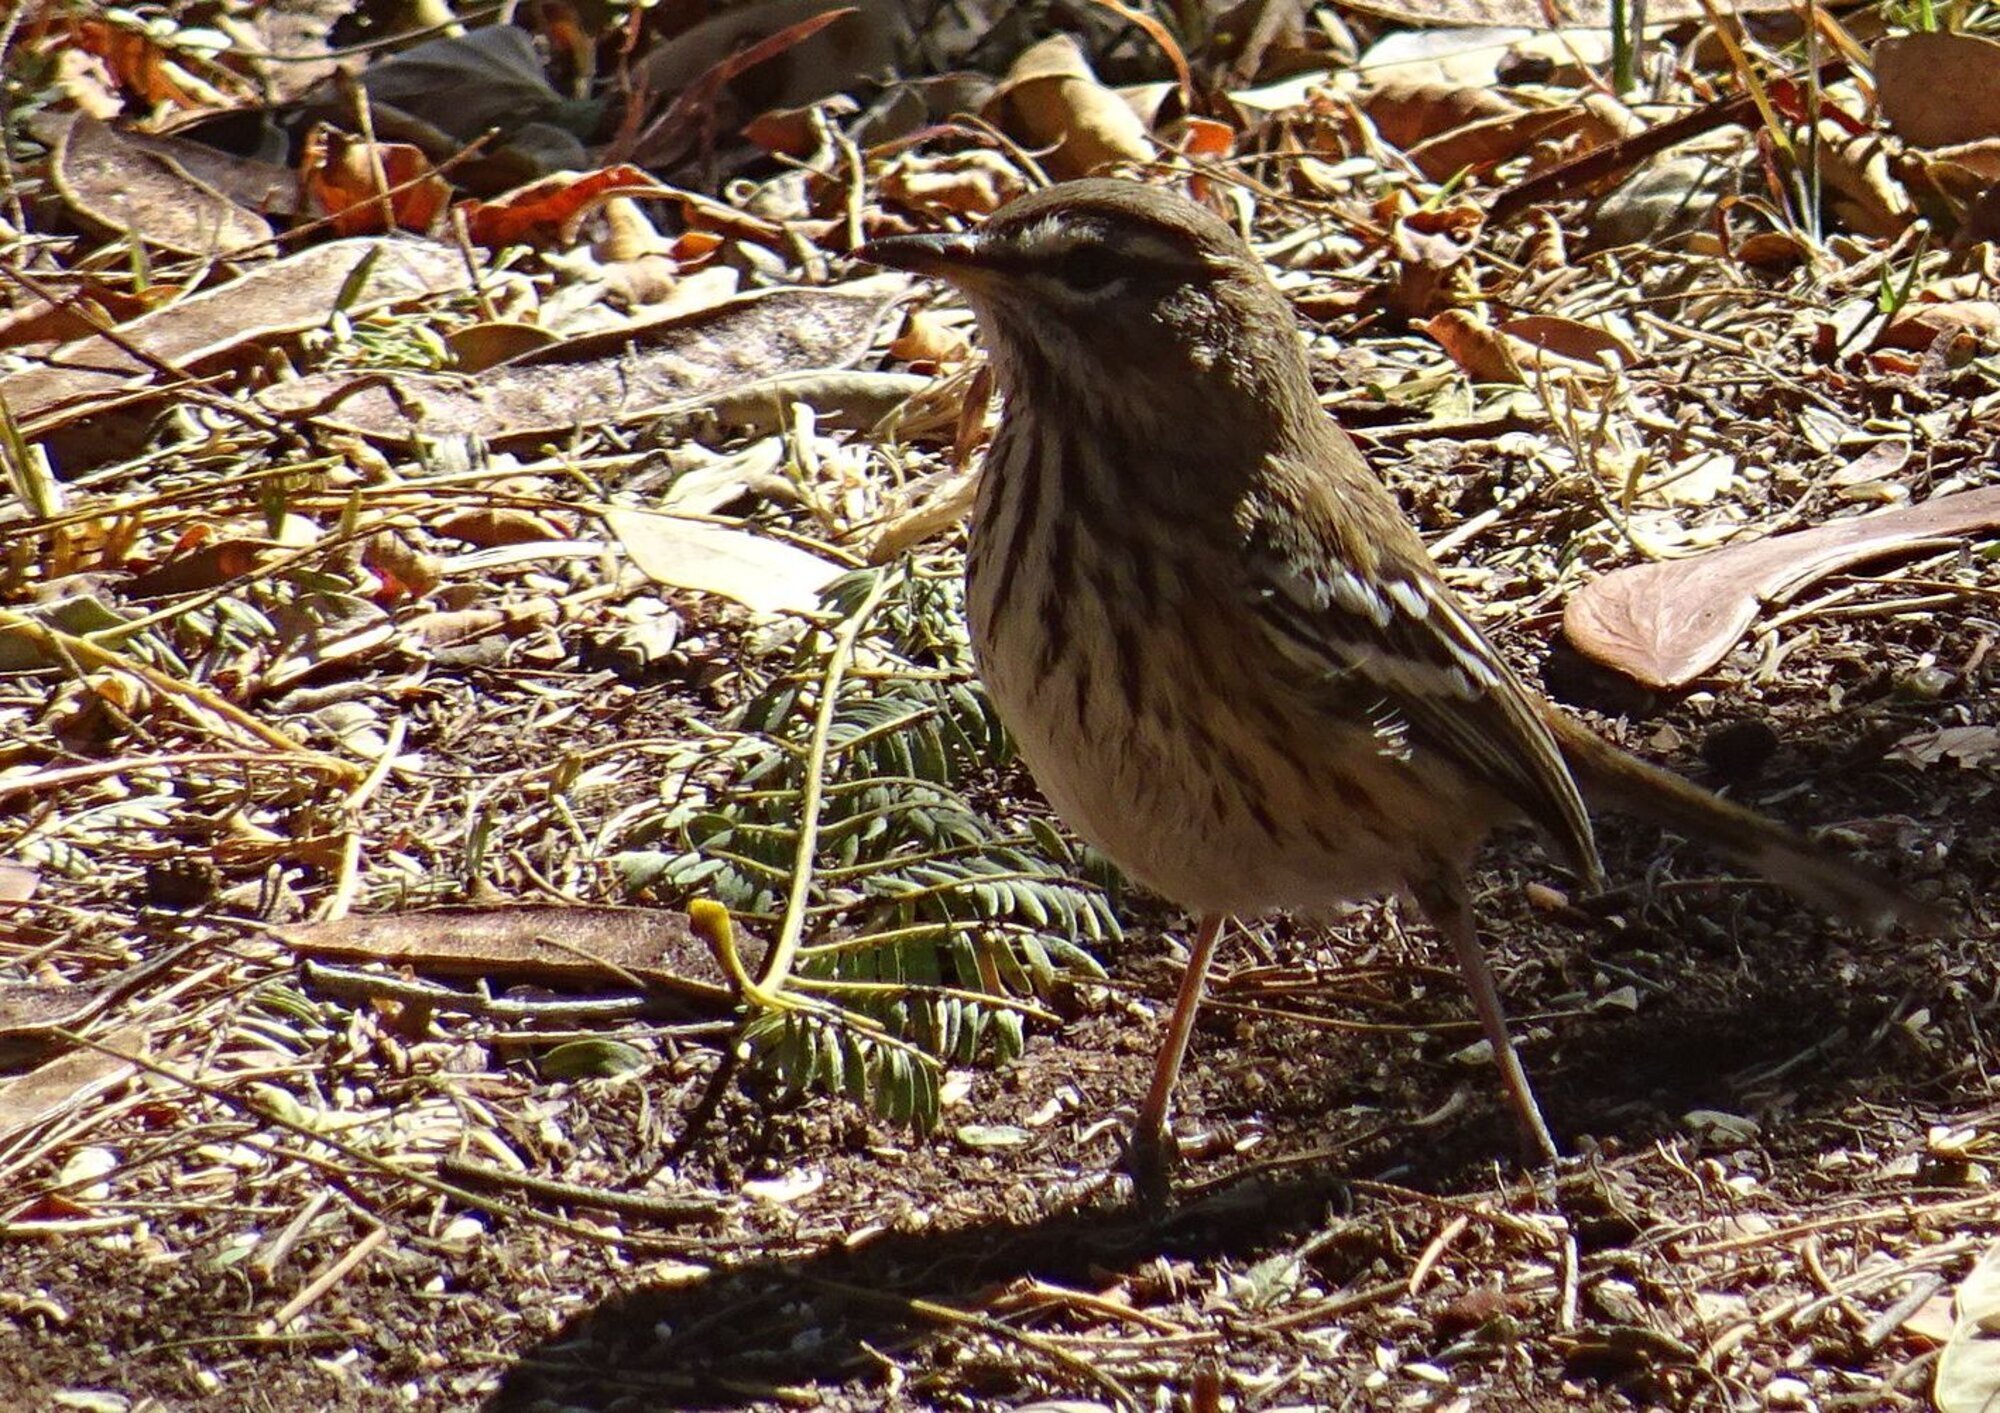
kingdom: Animalia
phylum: Chordata
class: Aves
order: Passeriformes
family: Muscicapidae
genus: Erythropygia
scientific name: Erythropygia leucophrys
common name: White-browed scrub robin
